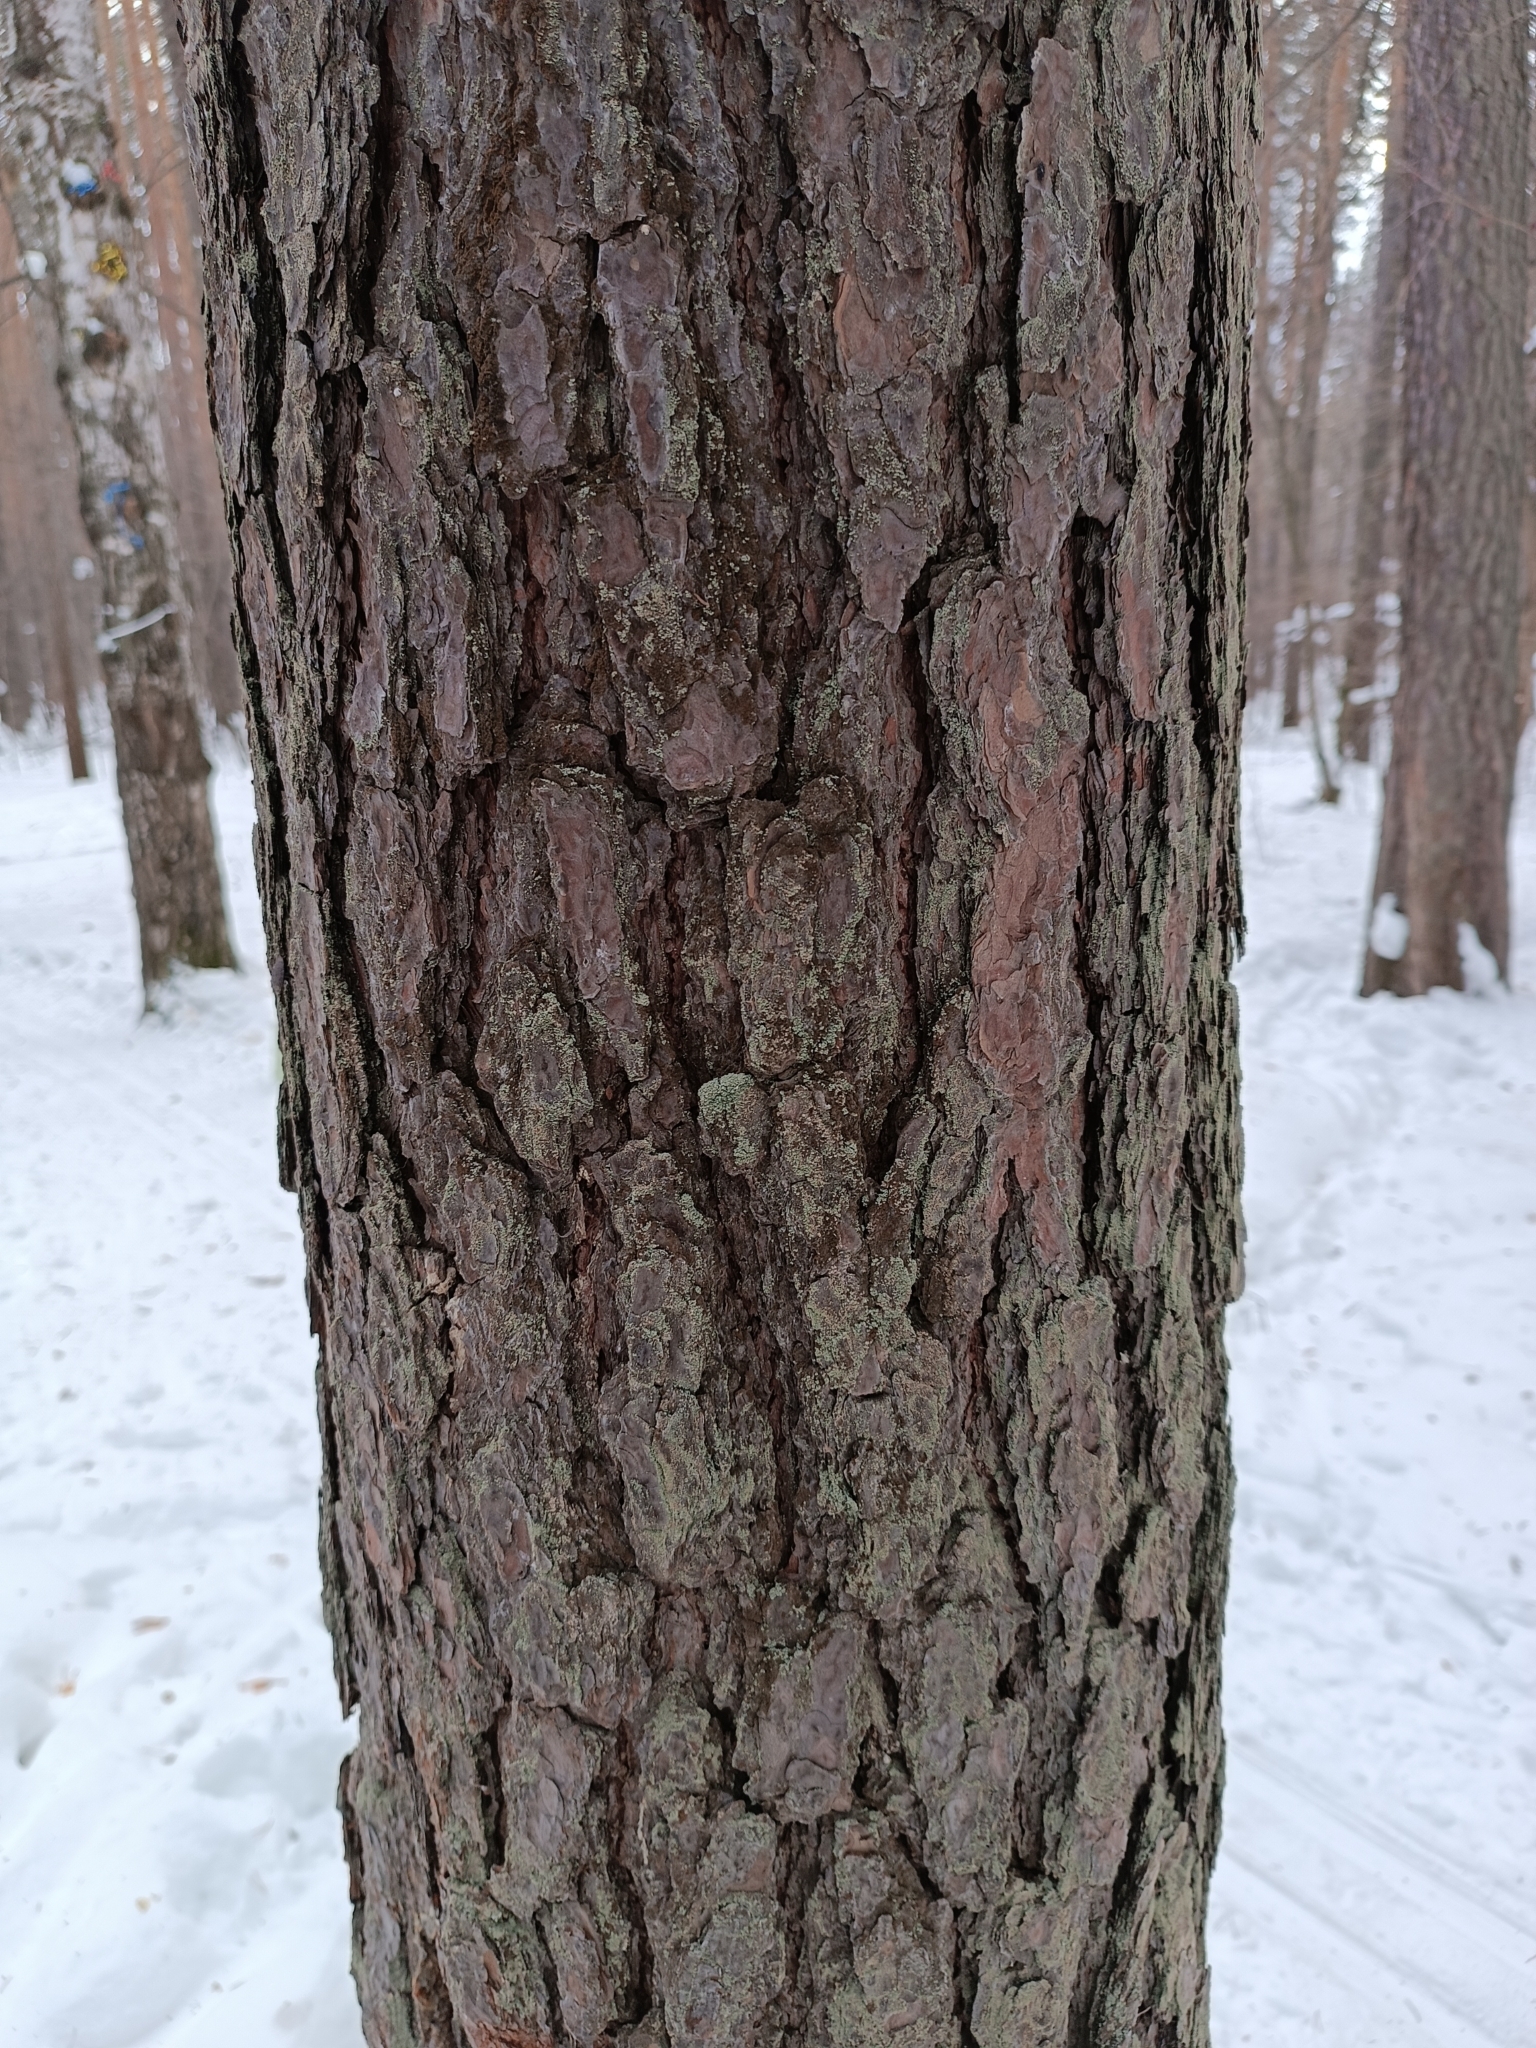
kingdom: Fungi
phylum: Ascomycota
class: Lecanoromycetes
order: Umbilicariales
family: Ophioparmaceae
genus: Hypocenomyce
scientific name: Hypocenomyce scalaris
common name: Common clam lichen
